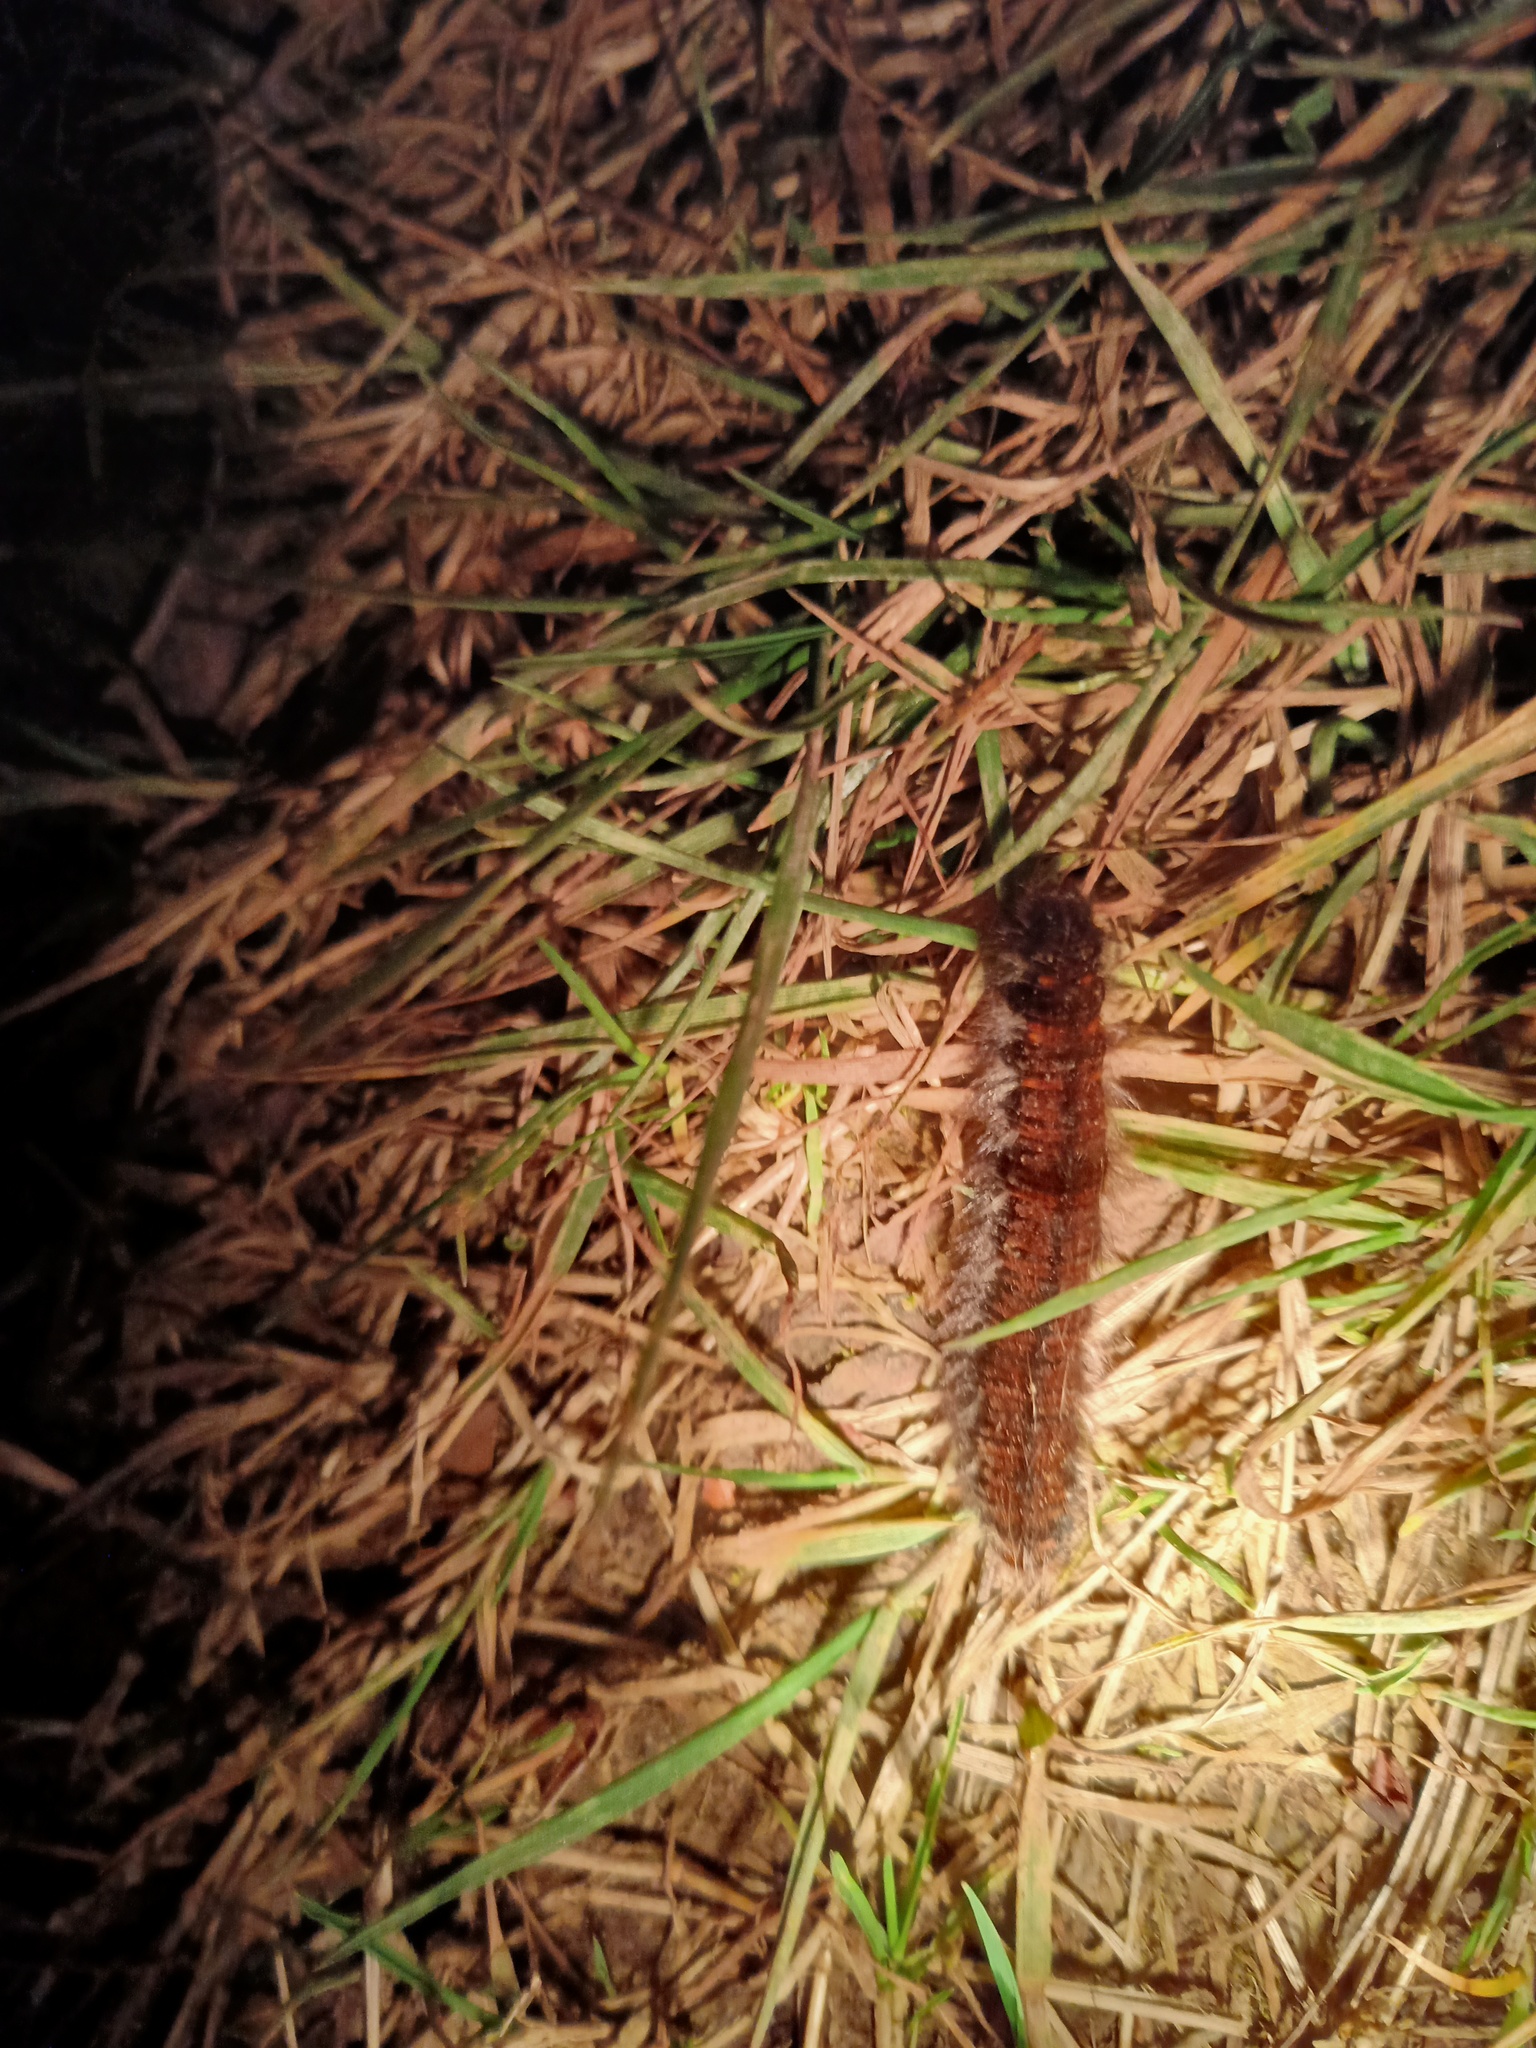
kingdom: Animalia
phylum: Arthropoda
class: Insecta
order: Lepidoptera
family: Lasiocampidae
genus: Macrothylacia
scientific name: Macrothylacia rubi
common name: Fox moth
